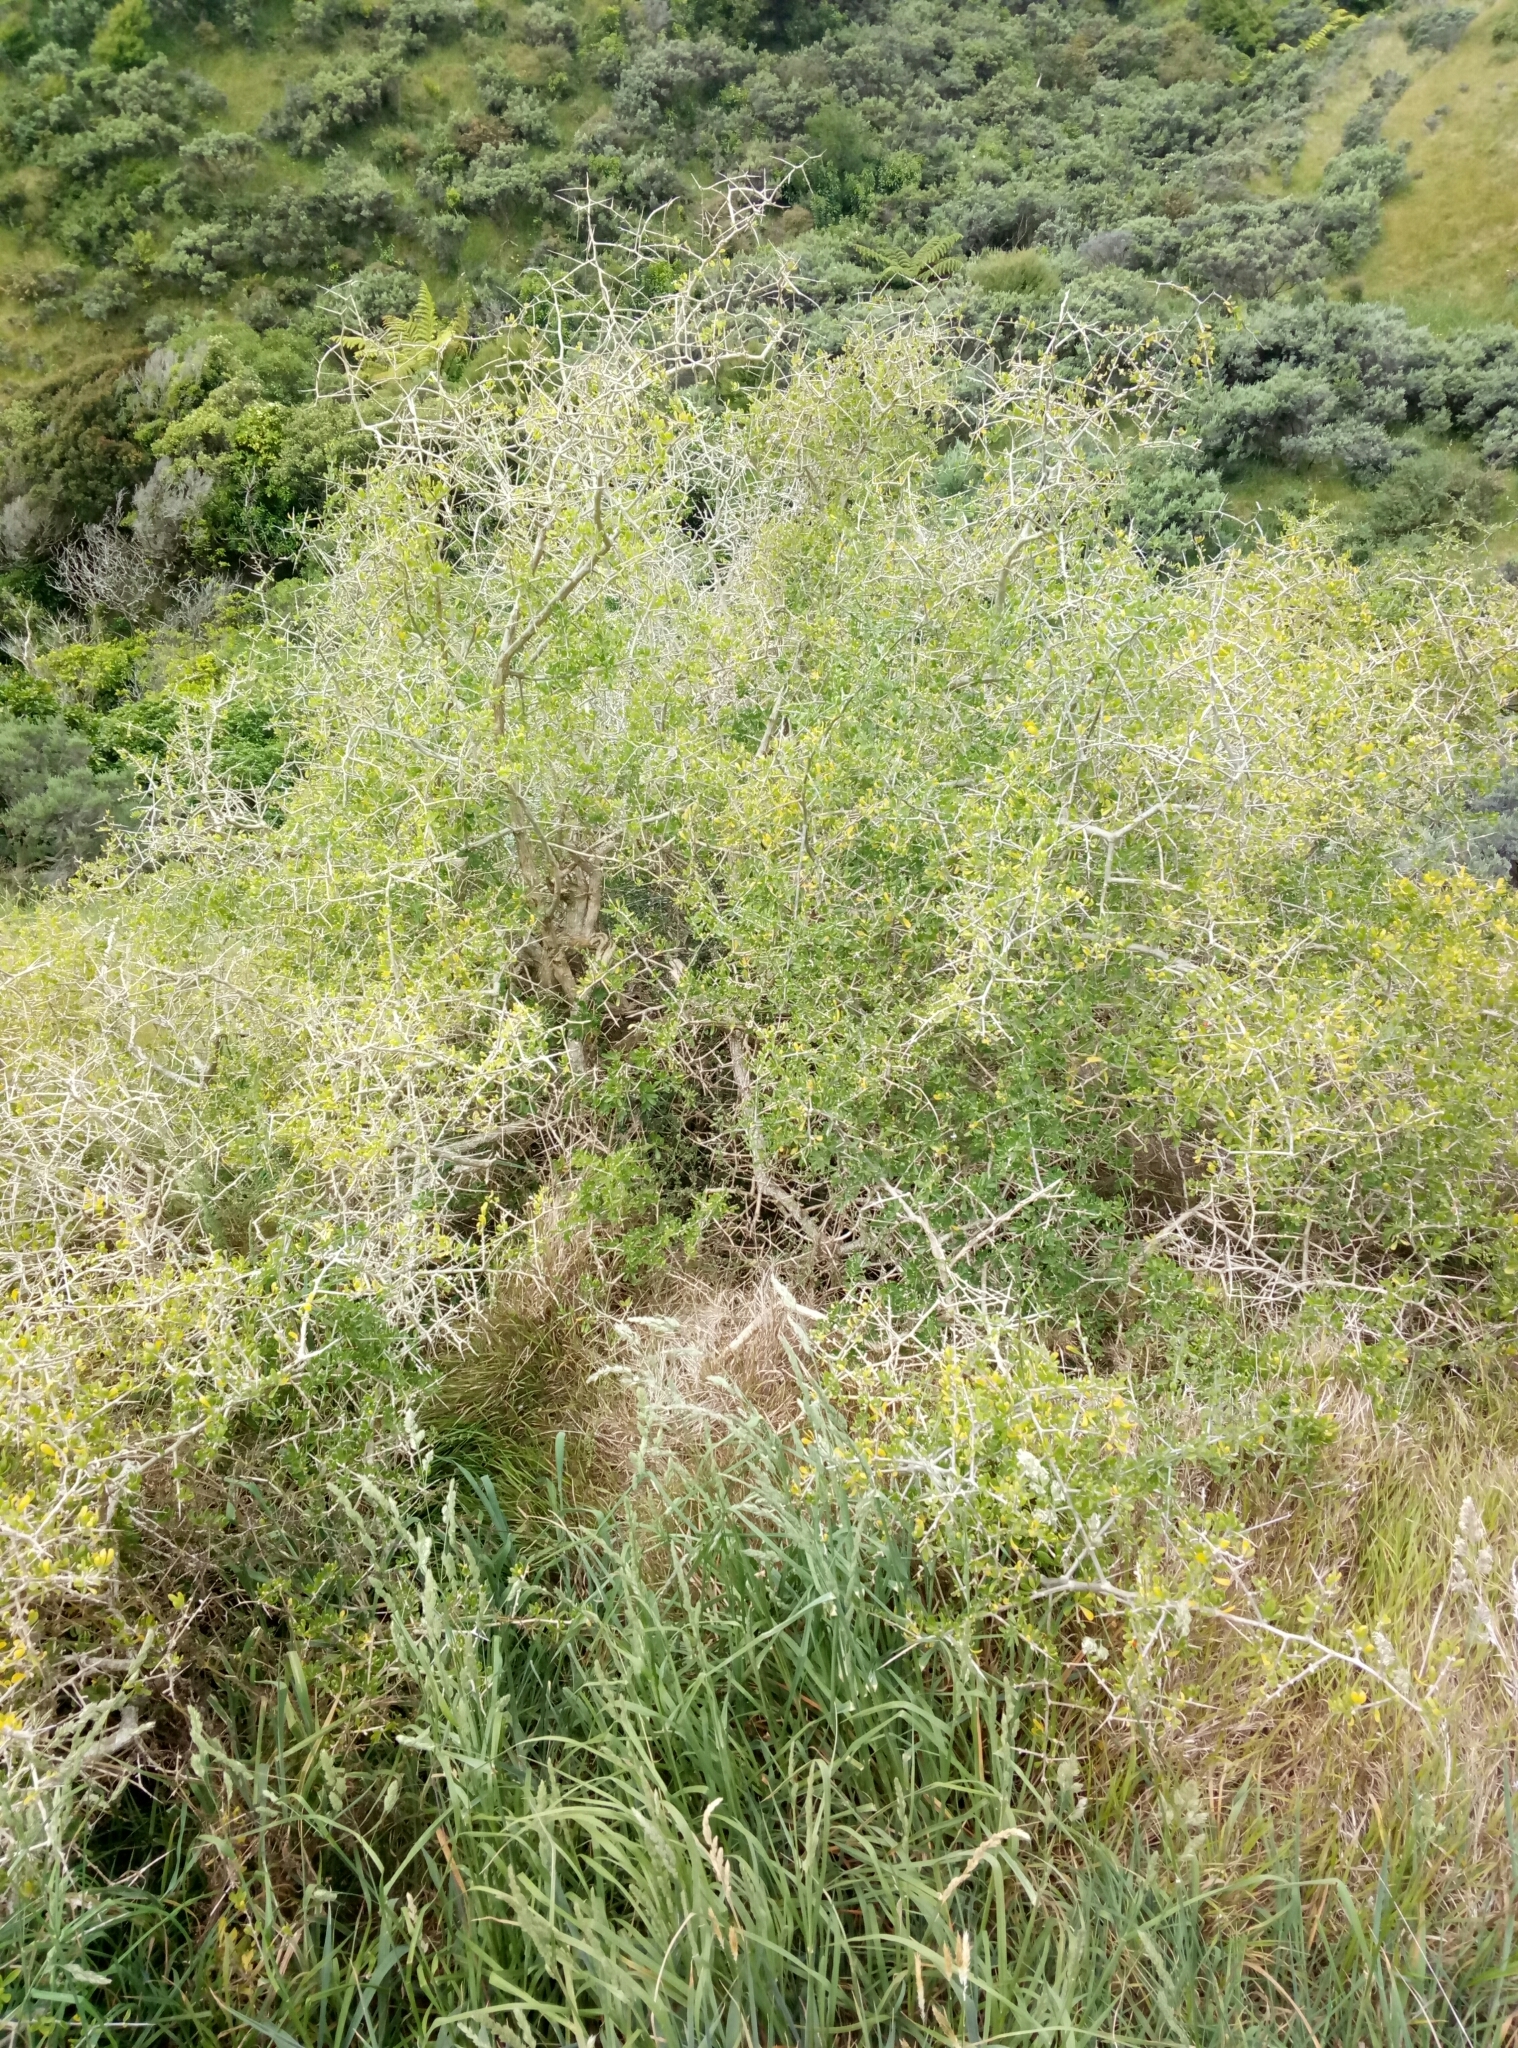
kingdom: Plantae
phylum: Tracheophyta
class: Magnoliopsida
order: Solanales
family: Solanaceae
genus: Lycium
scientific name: Lycium ferocissimum
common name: African boxthorn
